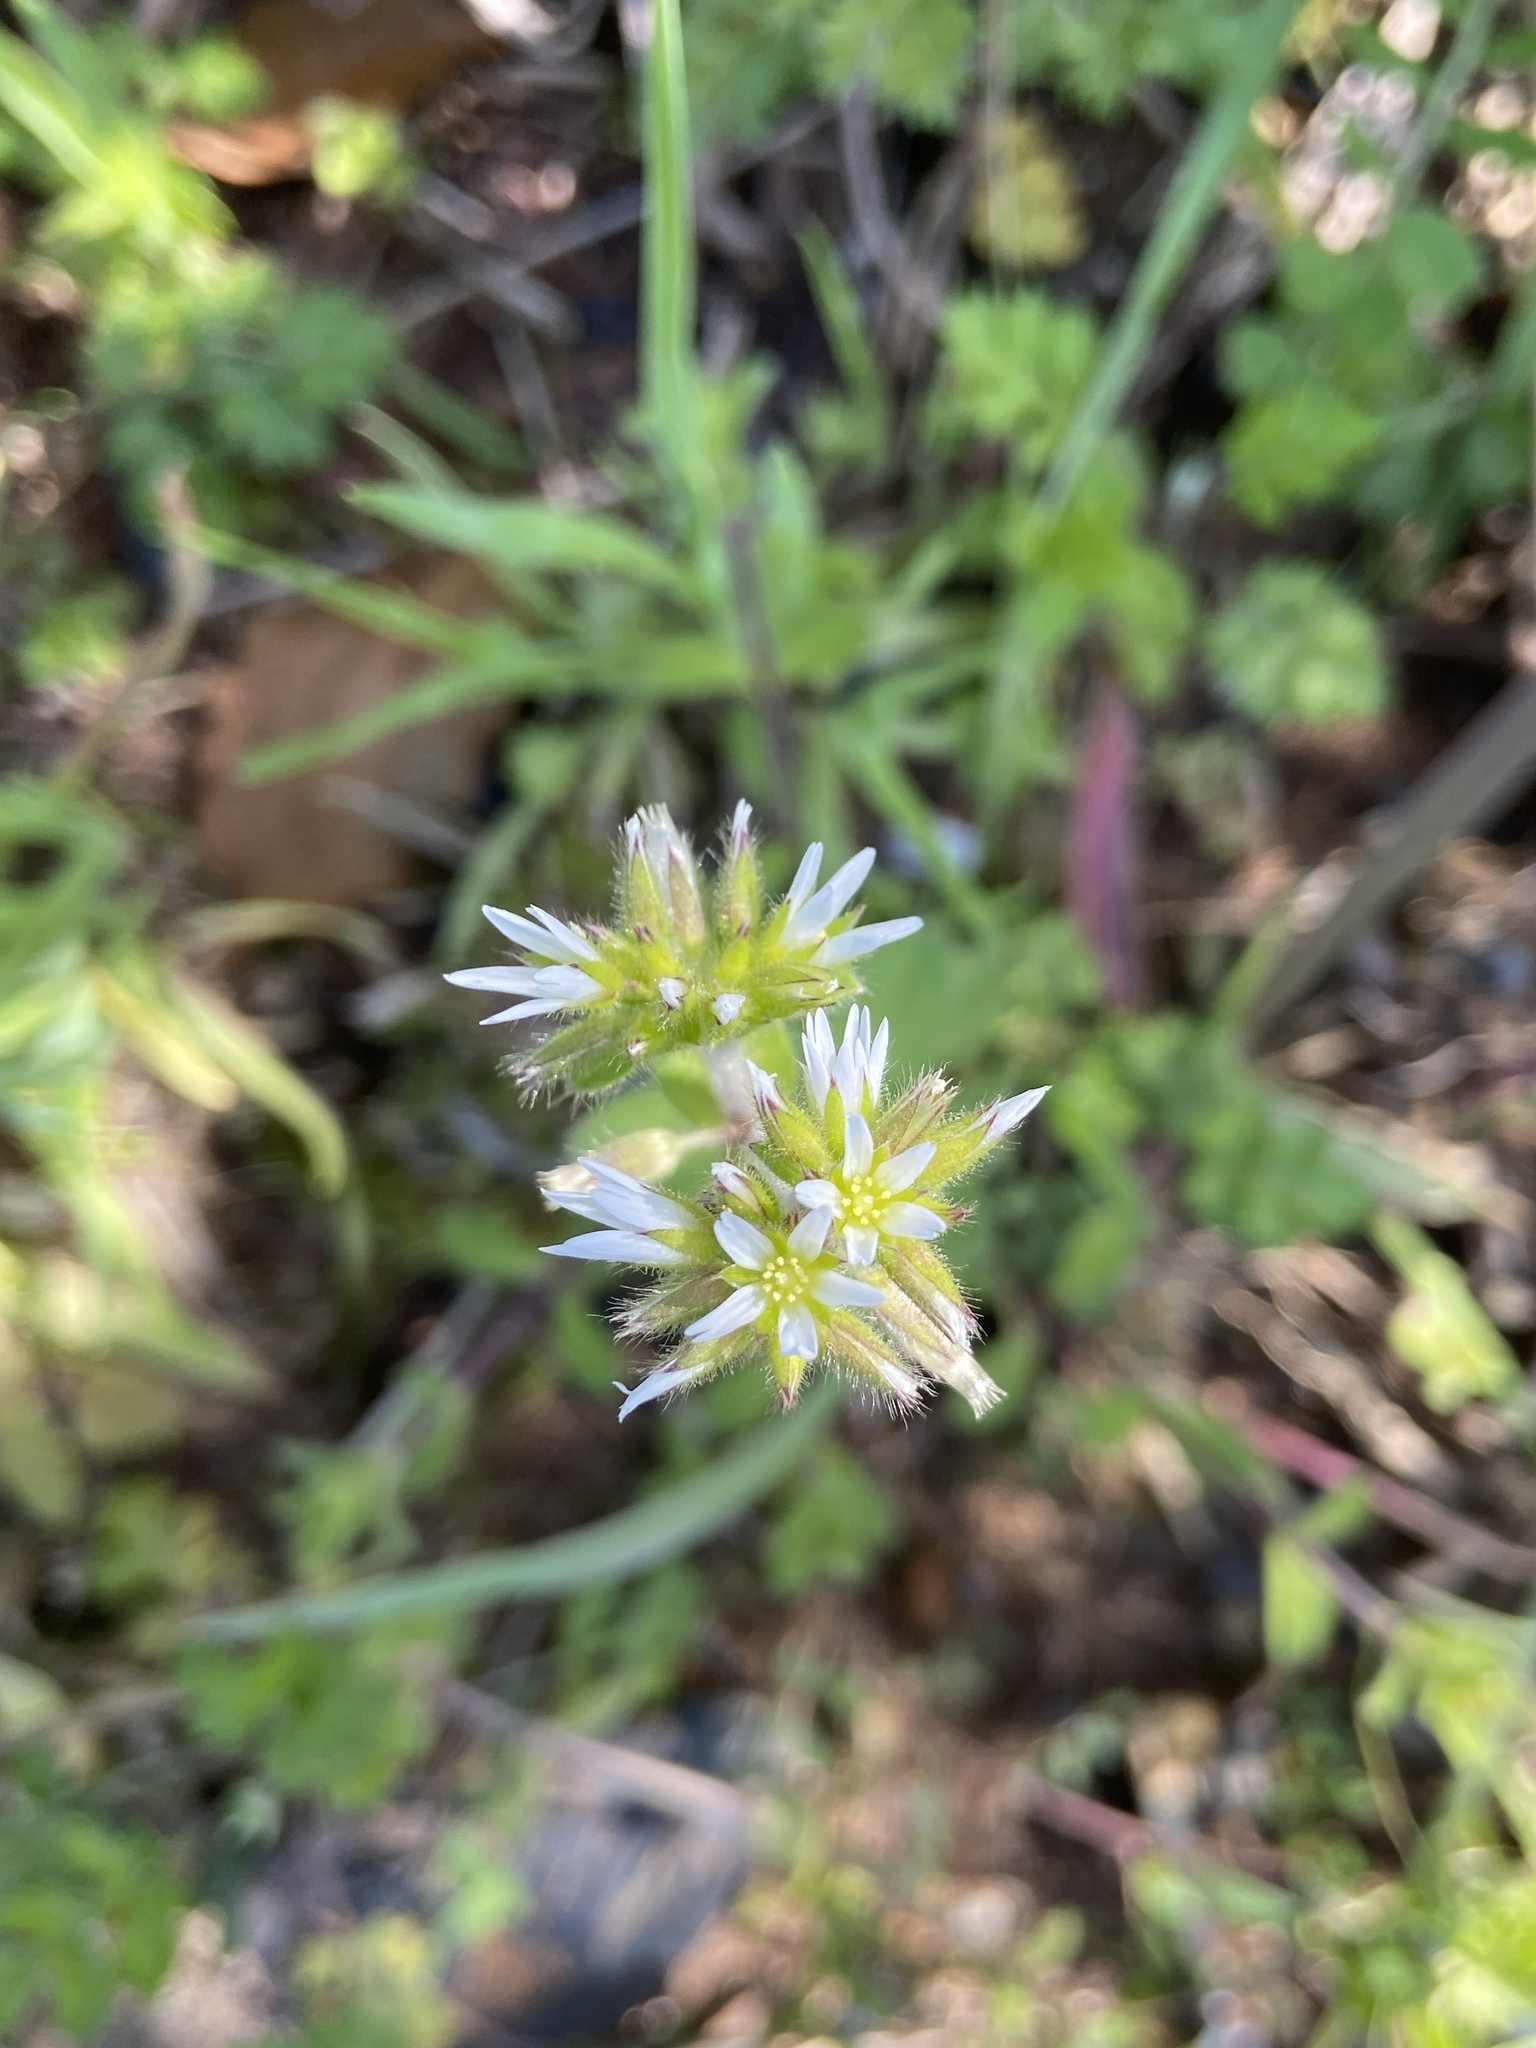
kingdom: Plantae
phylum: Tracheophyta
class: Magnoliopsida
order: Caryophyllales
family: Caryophyllaceae
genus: Cerastium
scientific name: Cerastium glomeratum
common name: Sticky chickweed
